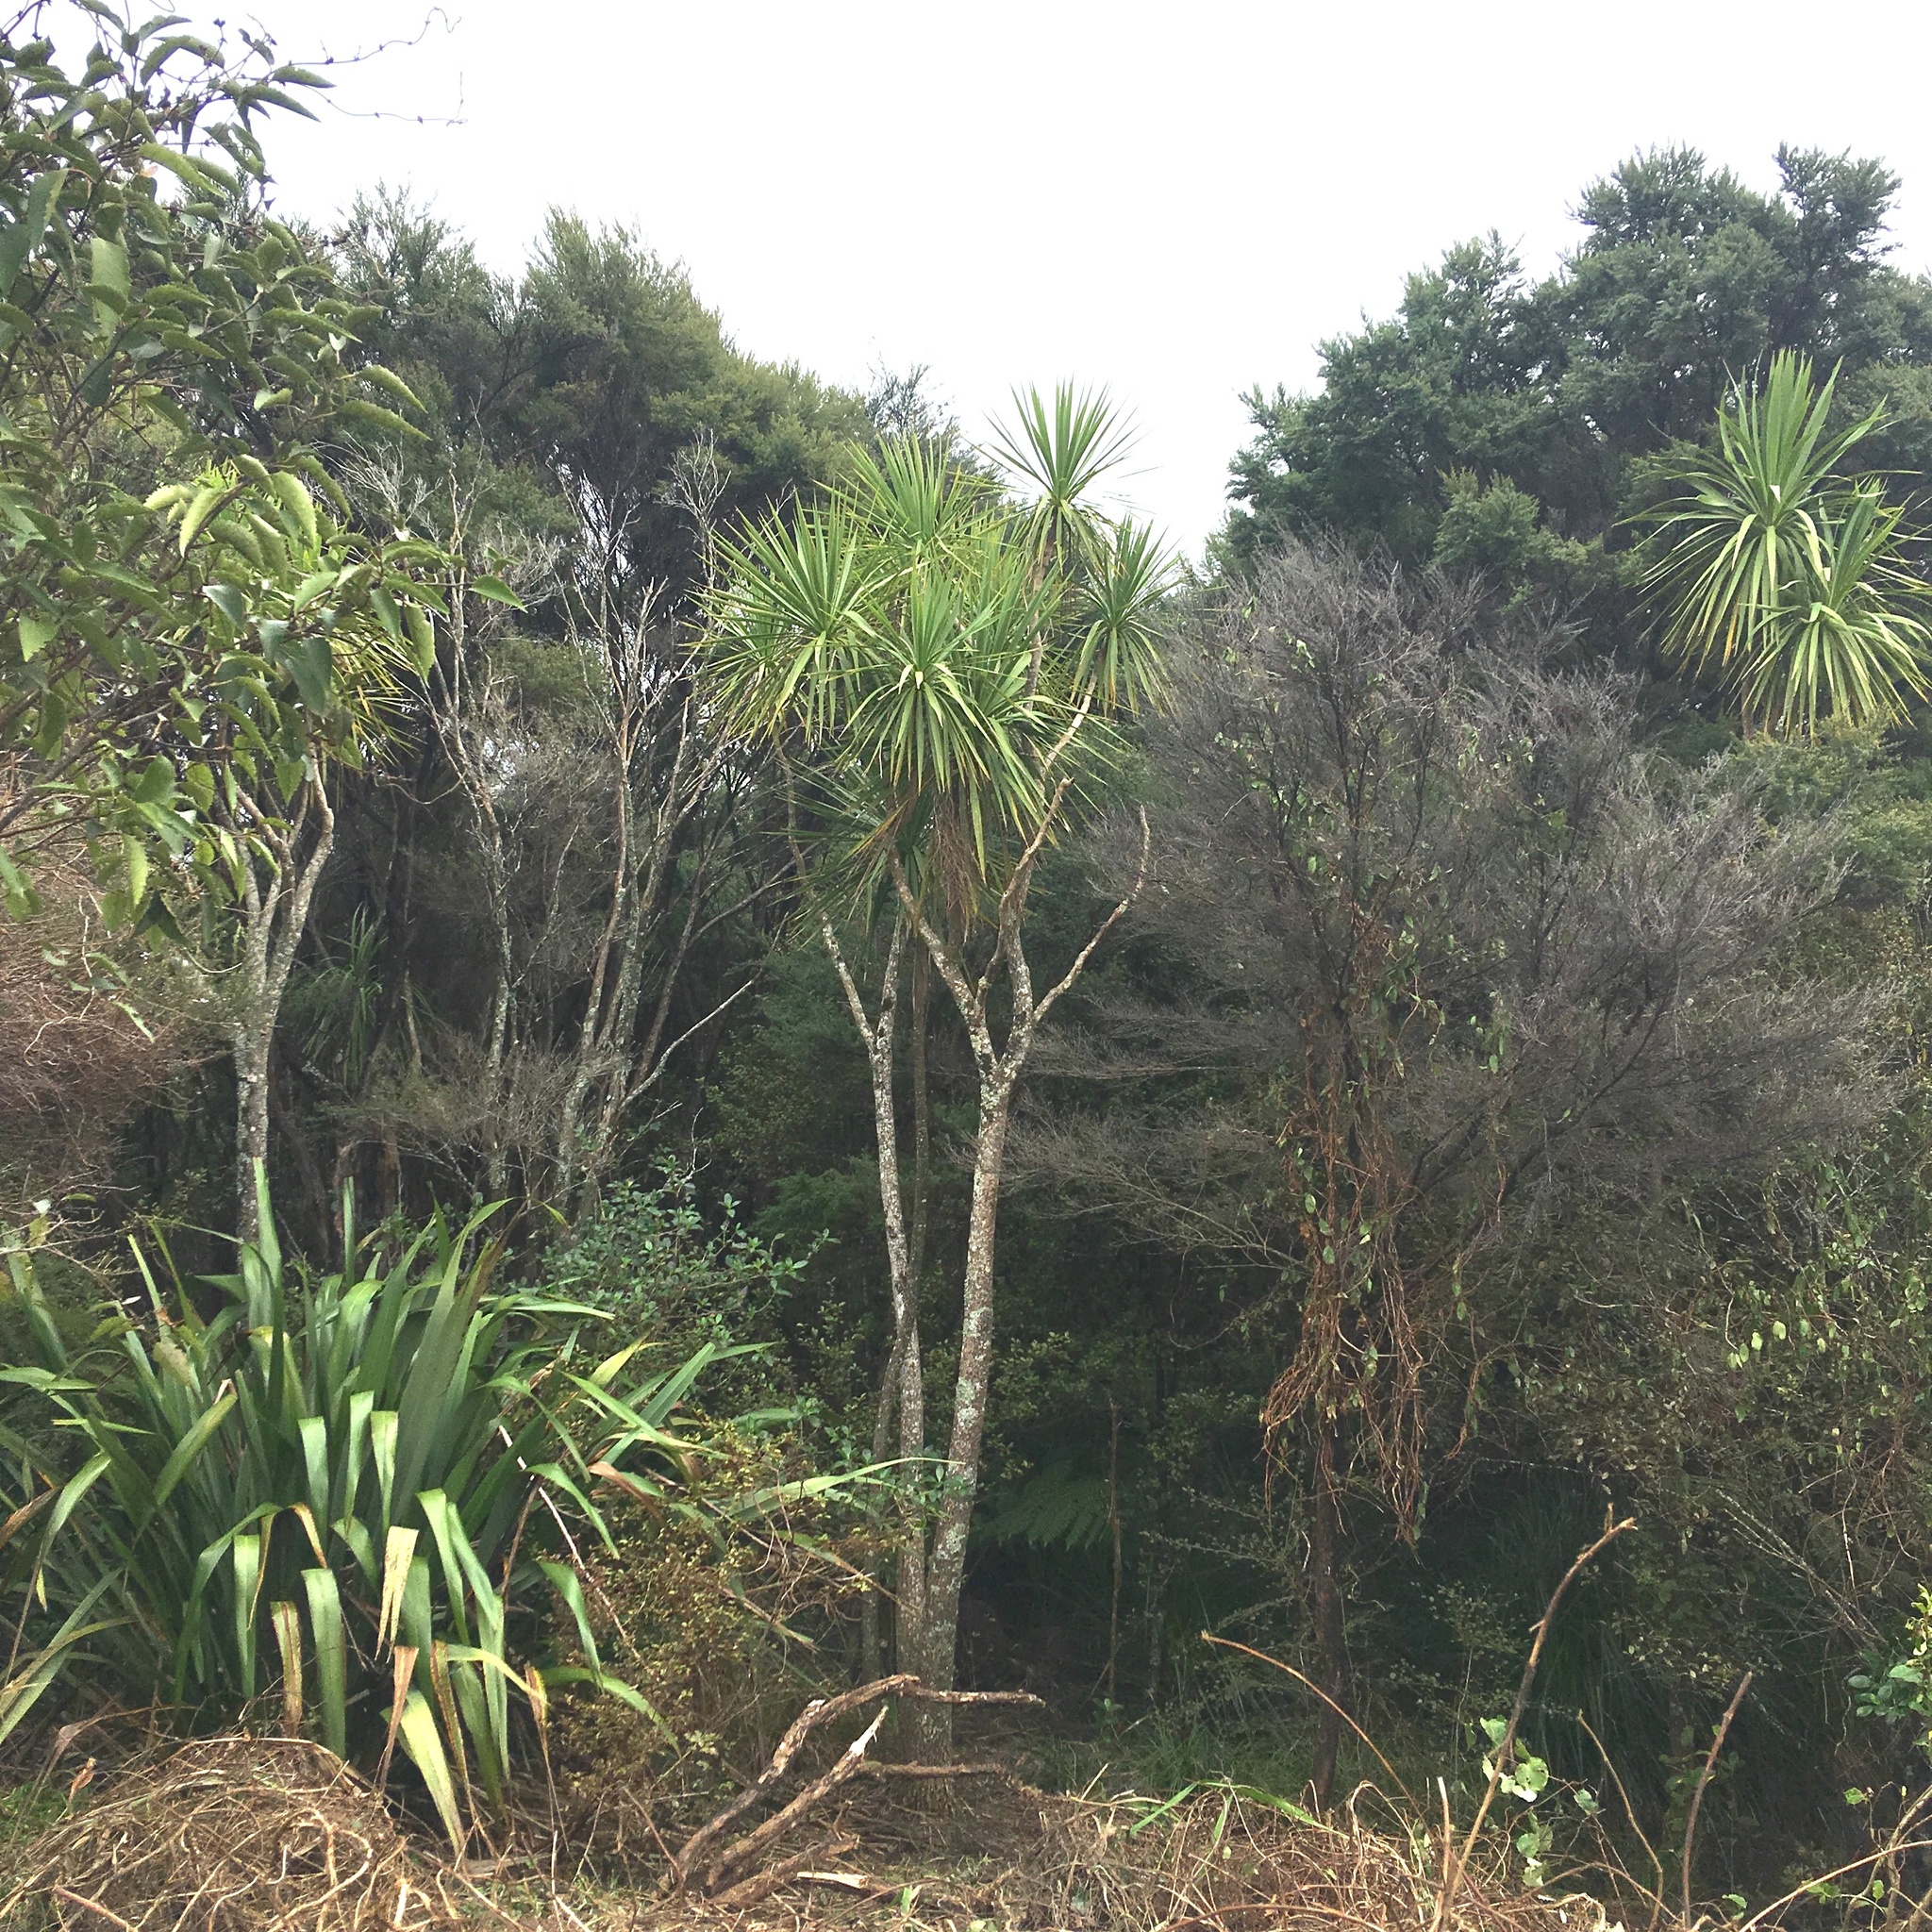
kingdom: Plantae
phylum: Tracheophyta
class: Magnoliopsida
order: Piperales
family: Piperaceae
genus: Macropiper
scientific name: Macropiper excelsum
